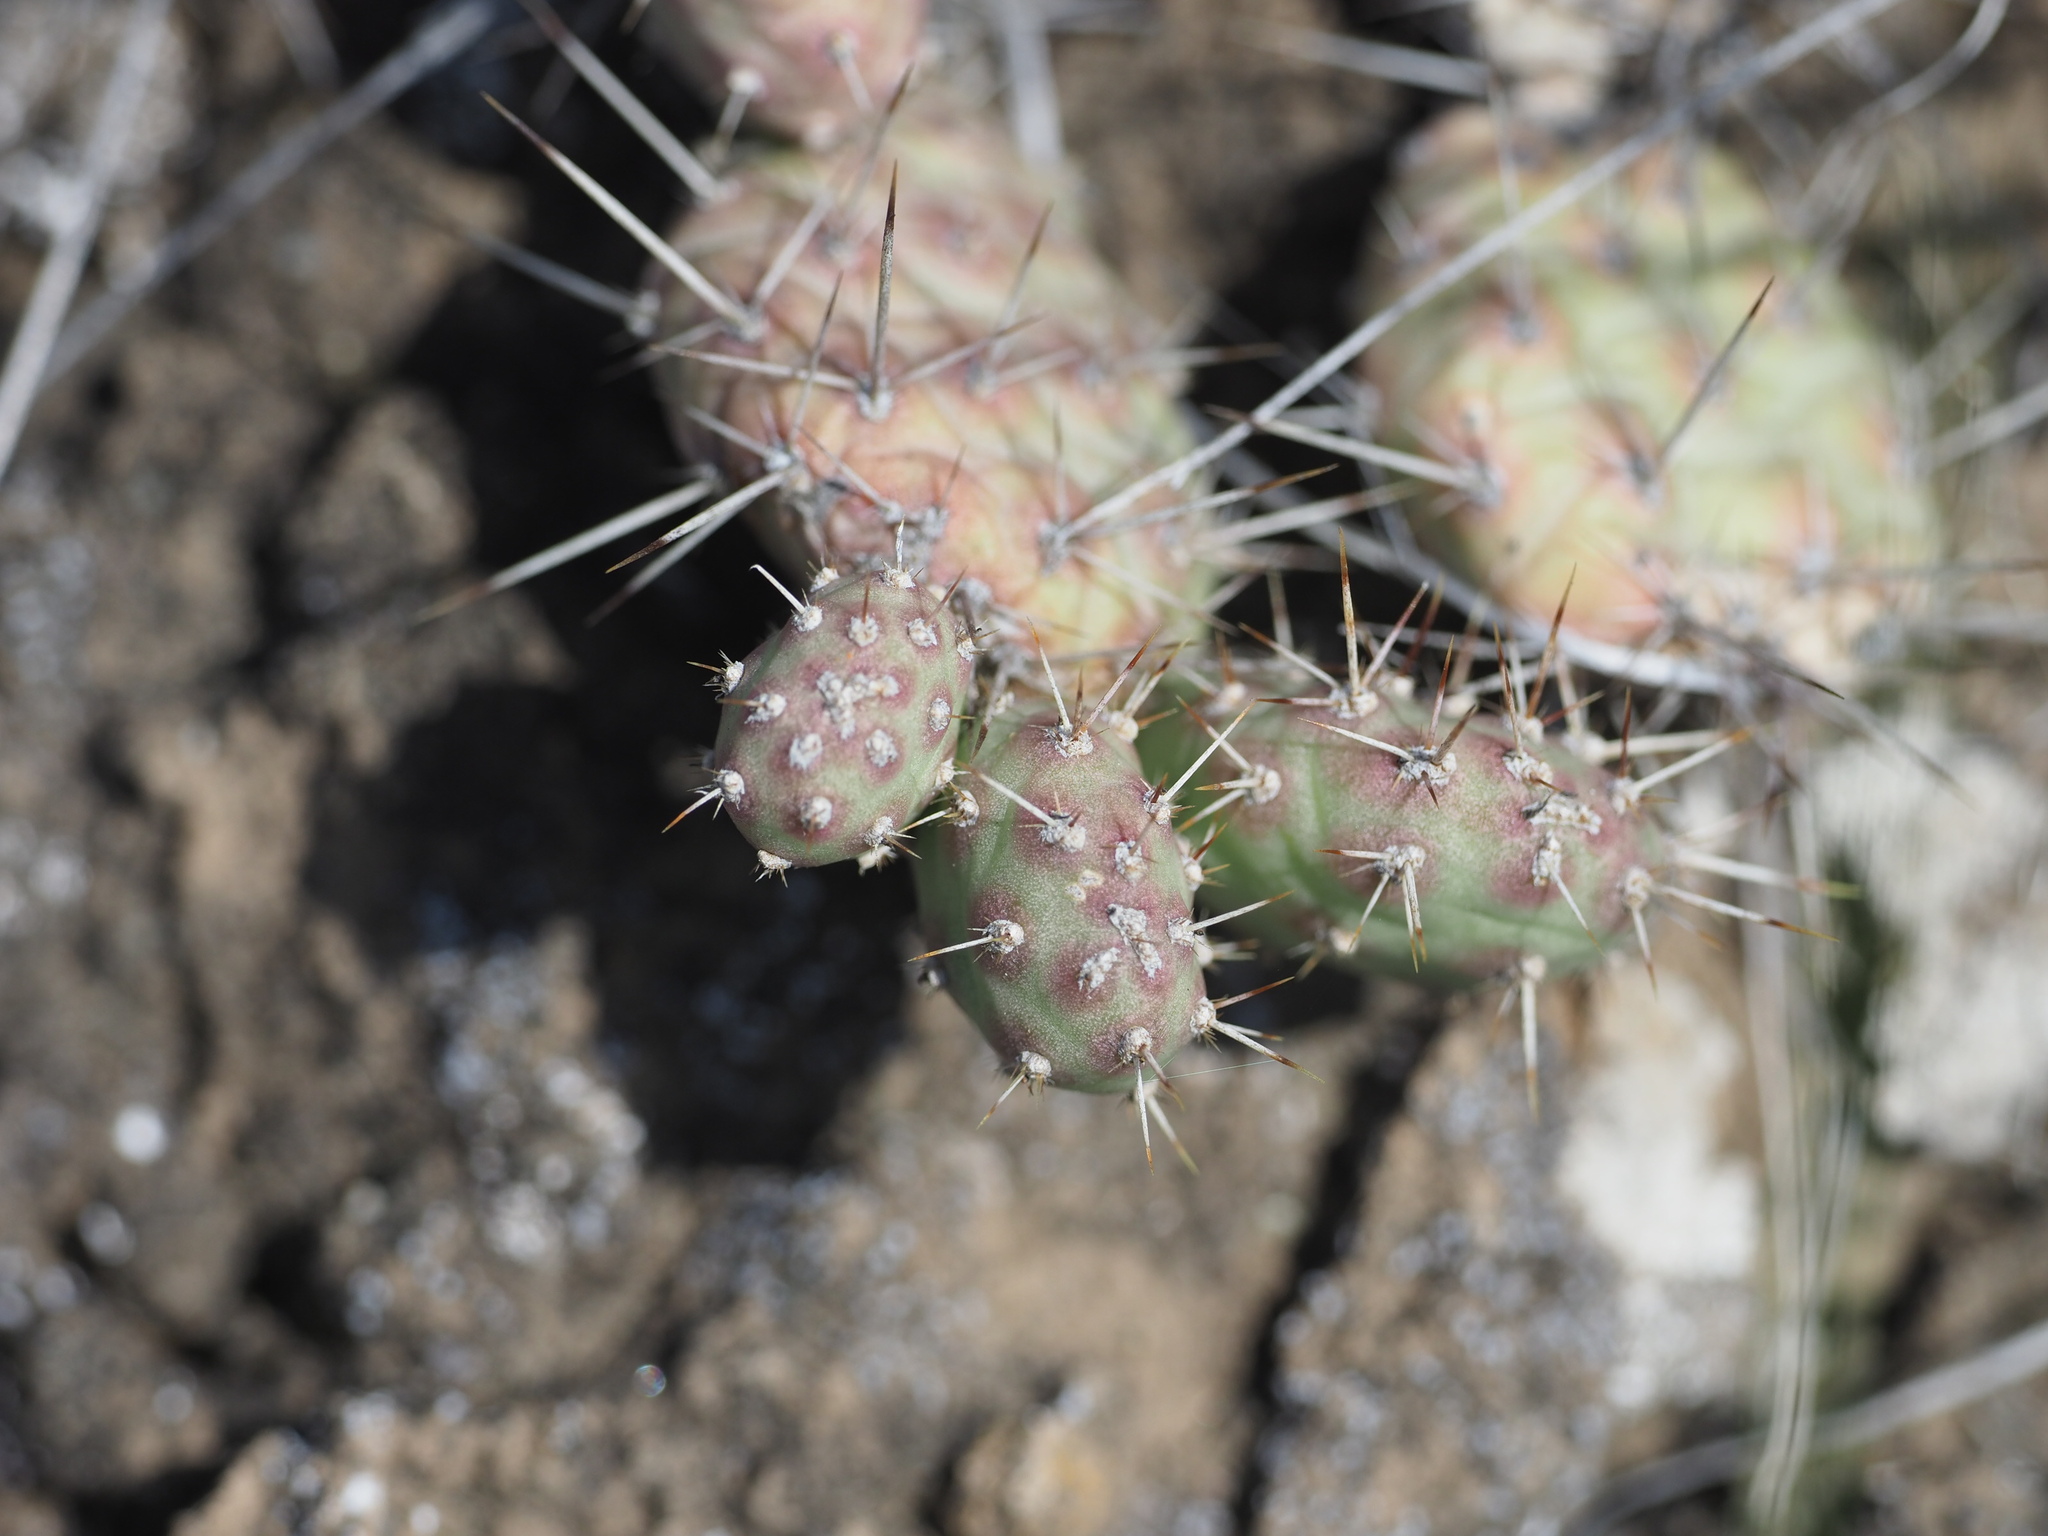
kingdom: Plantae
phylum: Tracheophyta
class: Magnoliopsida
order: Caryophyllales
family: Cactaceae
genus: Opuntia
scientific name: Opuntia fragilis
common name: Brittle cactus
